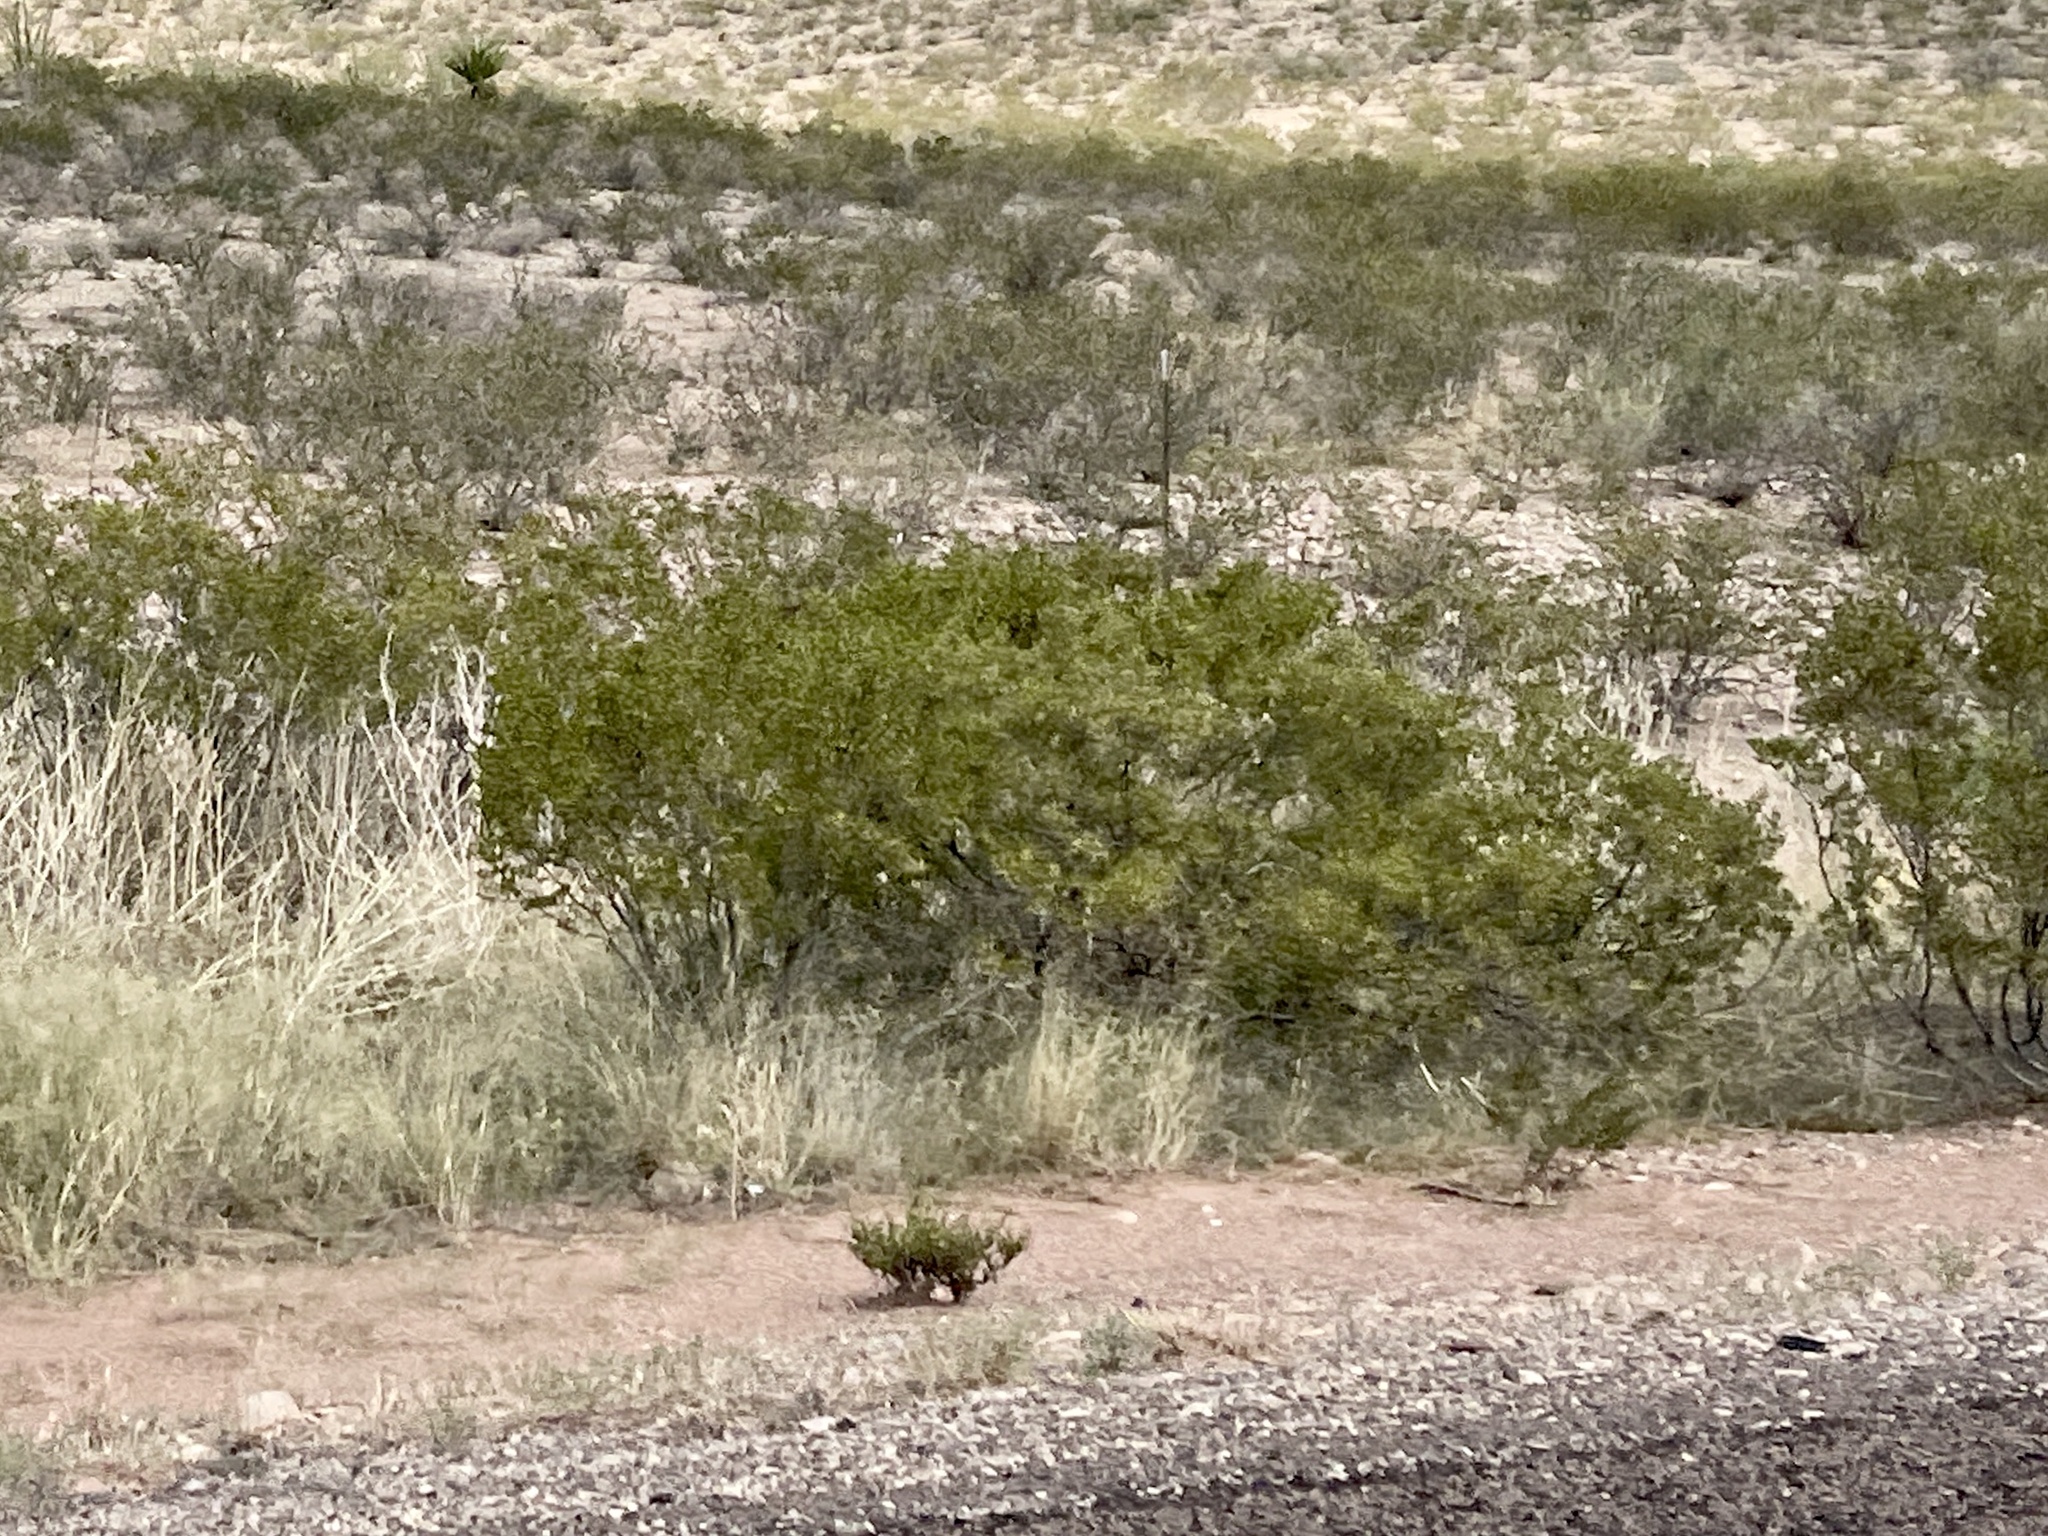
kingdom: Plantae
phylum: Tracheophyta
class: Magnoliopsida
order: Zygophyllales
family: Zygophyllaceae
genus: Larrea
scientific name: Larrea tridentata
